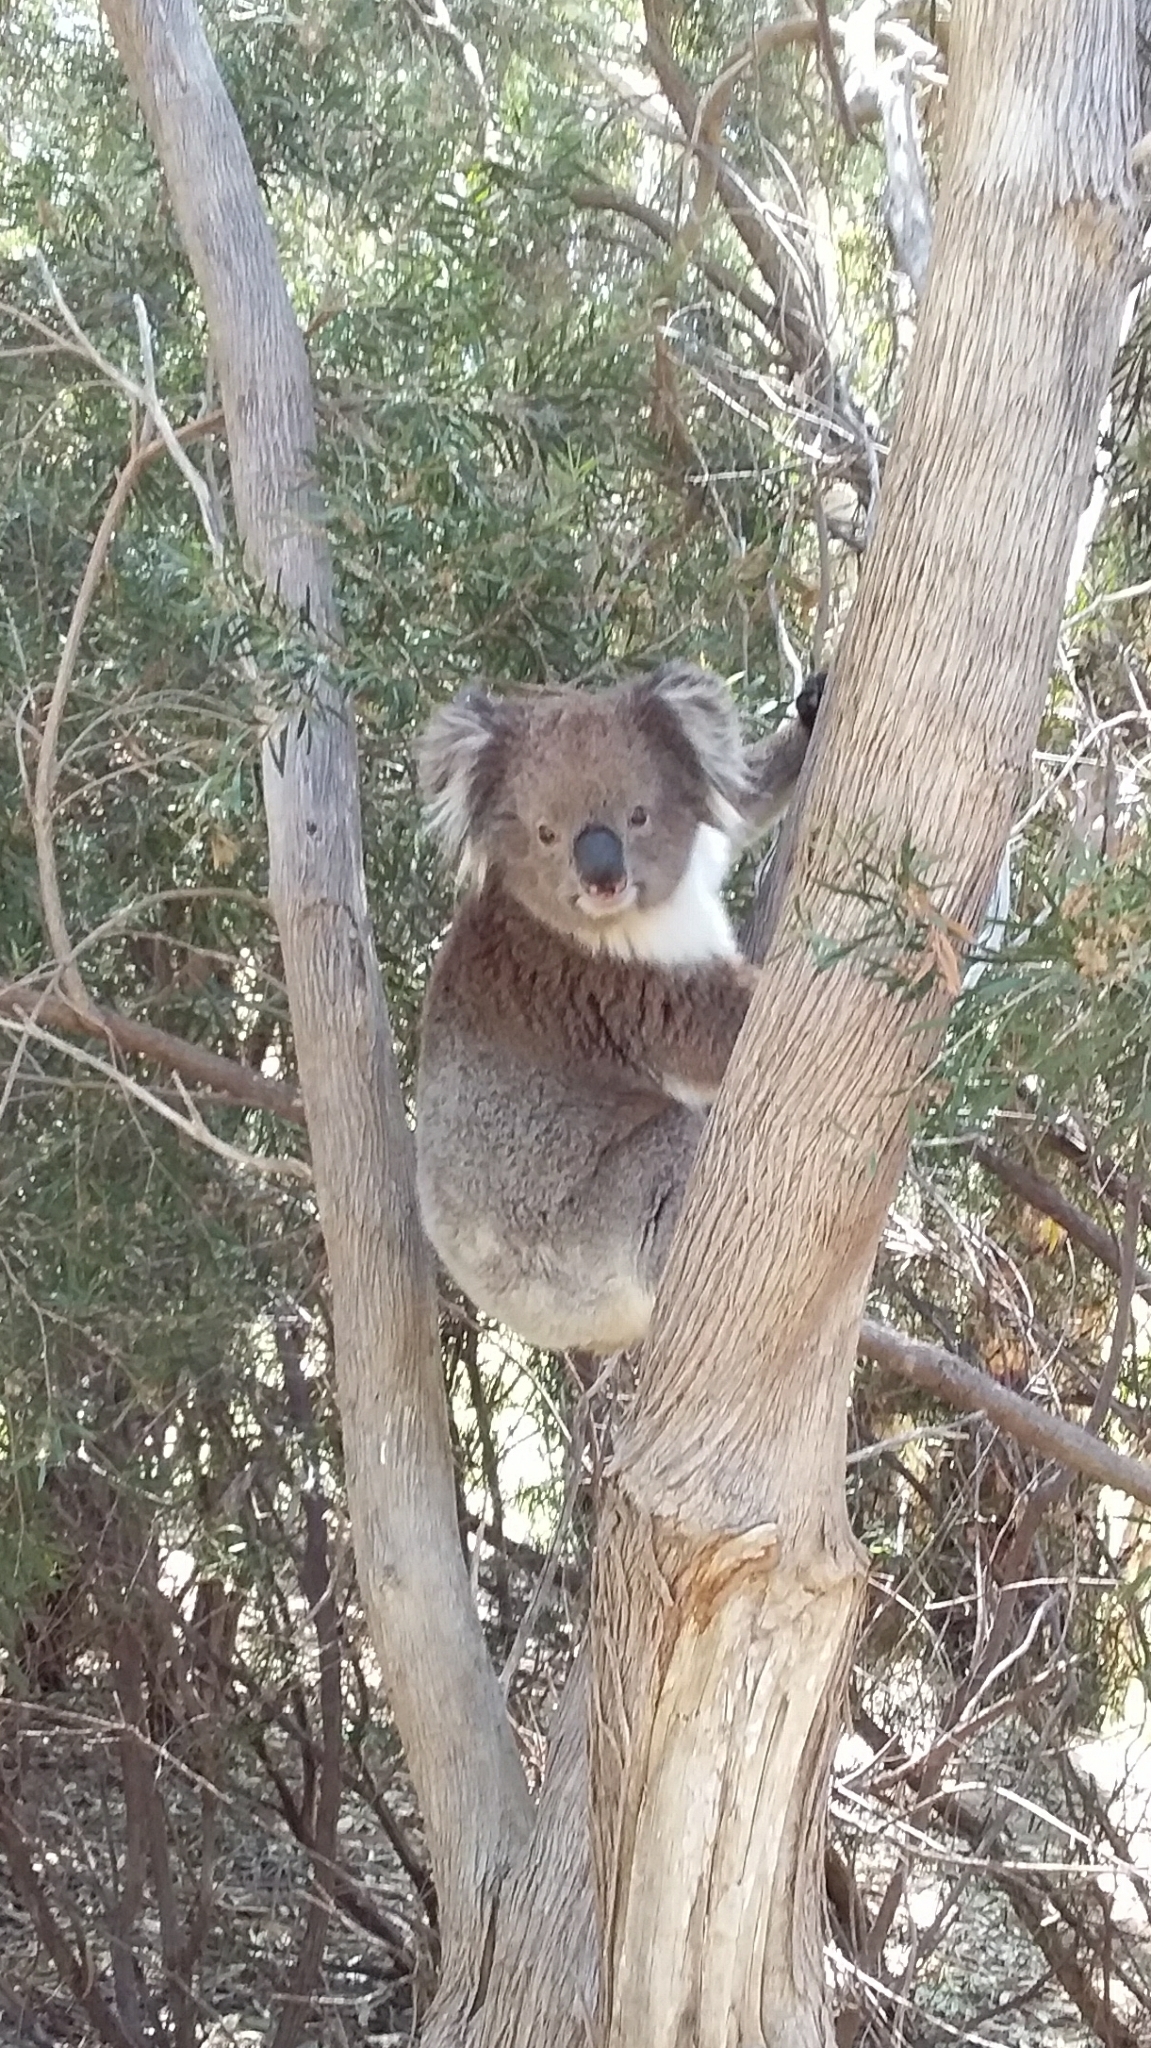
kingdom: Animalia
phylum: Chordata
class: Mammalia
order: Diprotodontia
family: Phascolarctidae
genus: Phascolarctos
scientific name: Phascolarctos cinereus
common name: Koala
